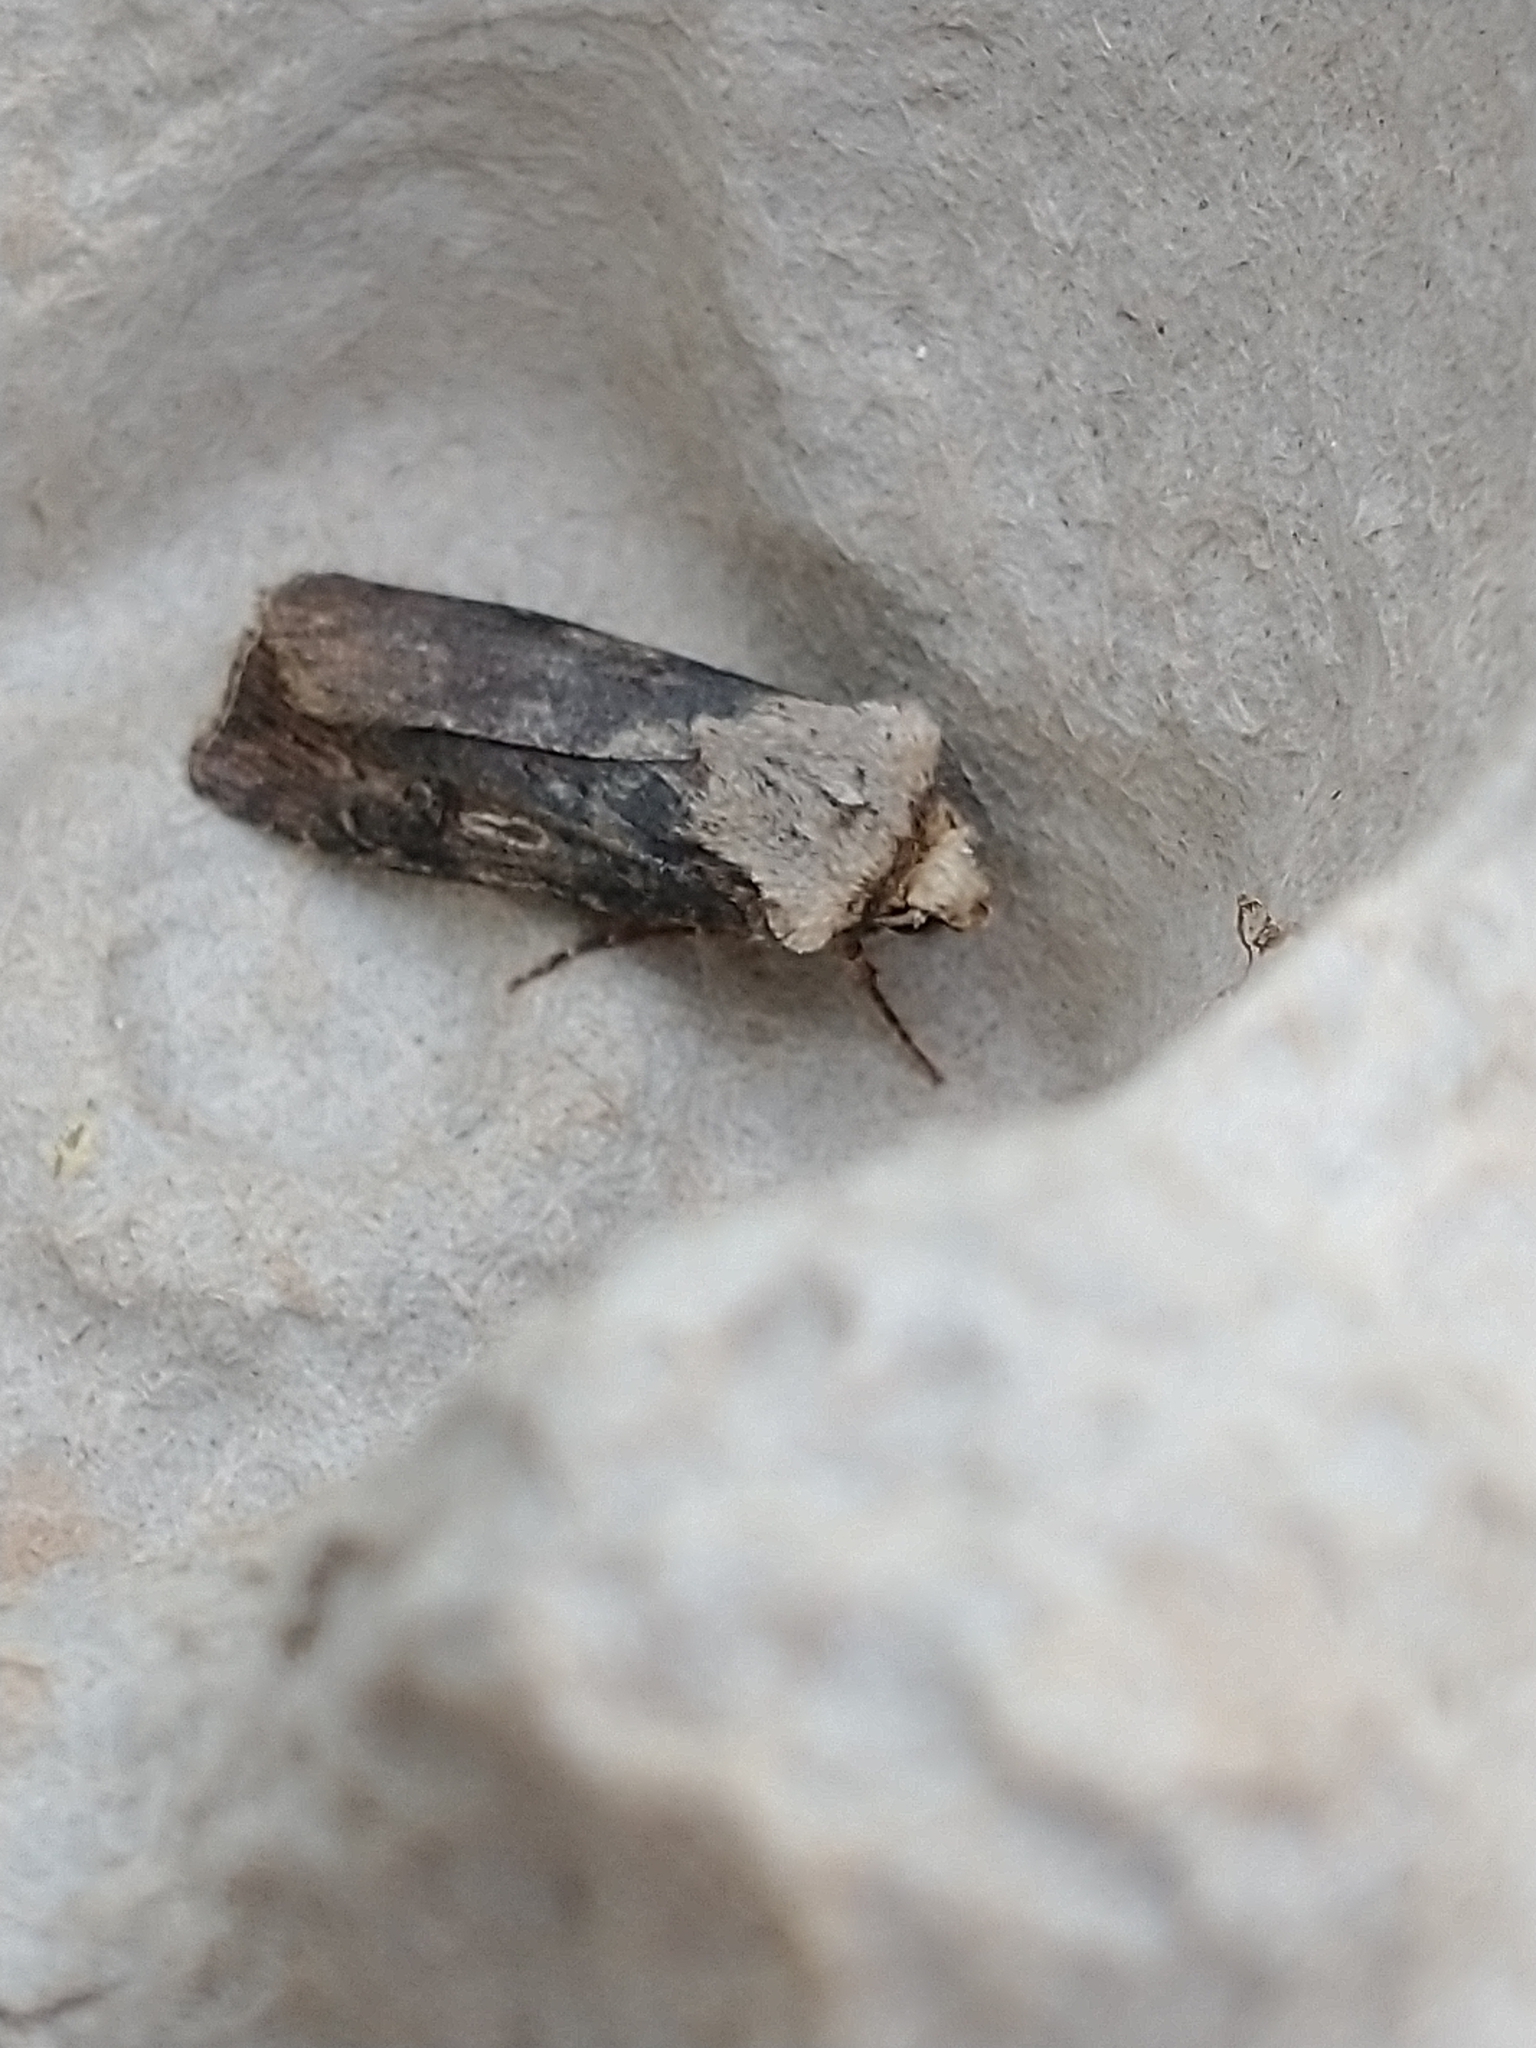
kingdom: Animalia
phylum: Arthropoda
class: Insecta
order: Lepidoptera
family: Noctuidae
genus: Agrotis
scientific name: Agrotis puta
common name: Shuttle-shaped dart
